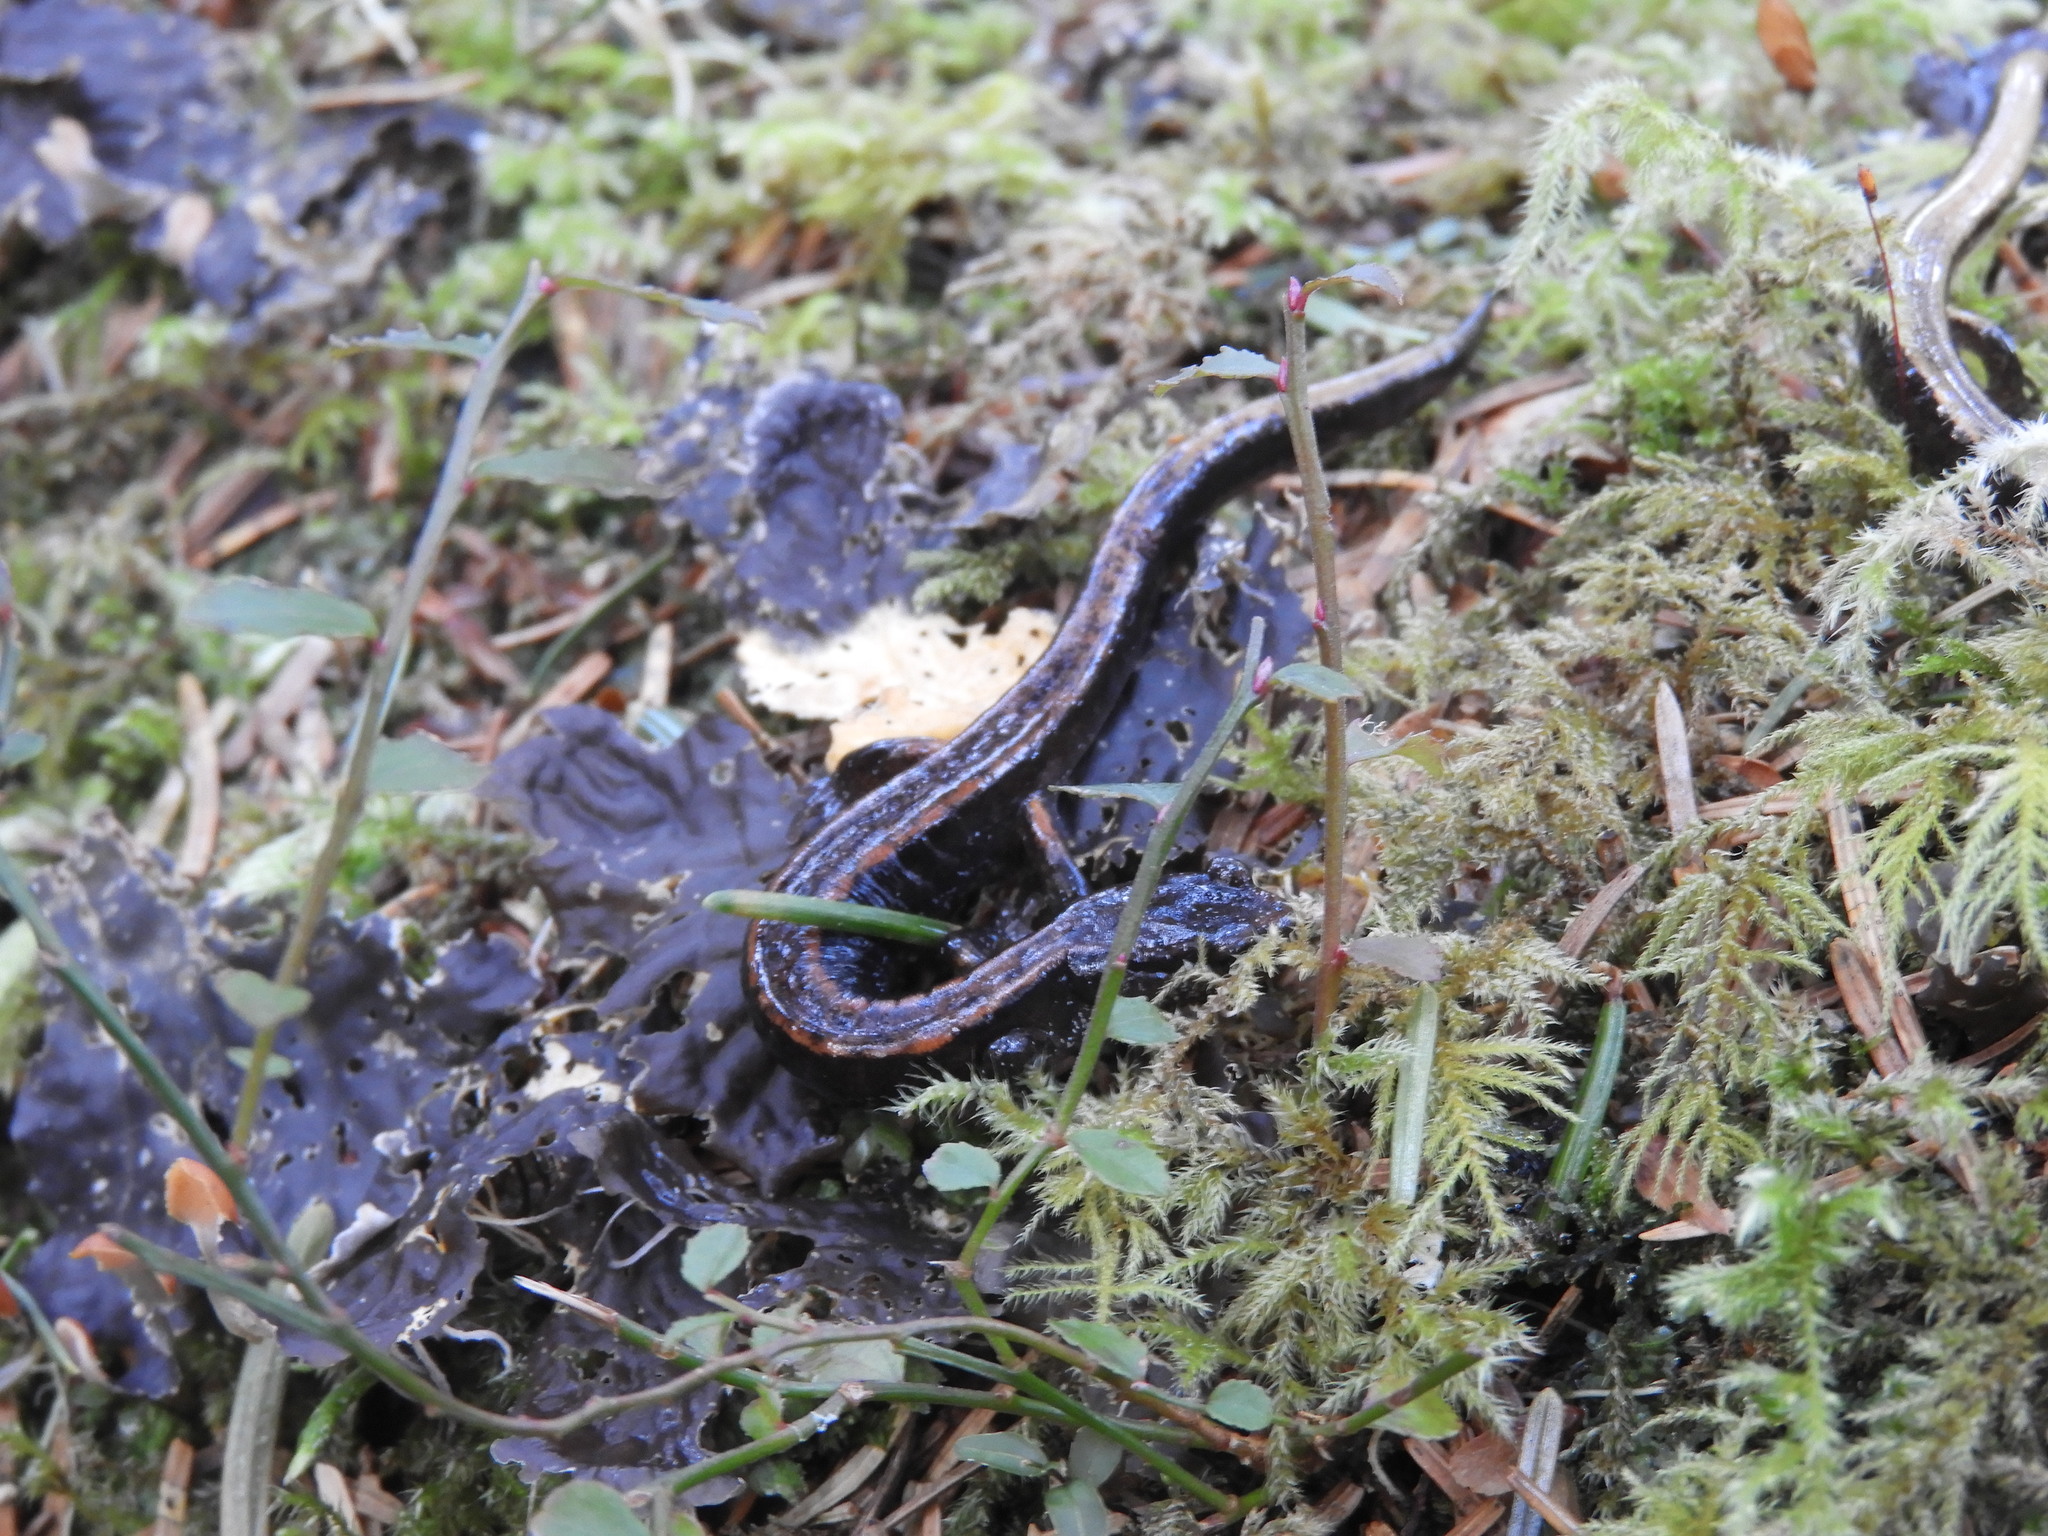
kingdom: Animalia
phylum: Chordata
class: Amphibia
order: Caudata
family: Plethodontidae
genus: Plethodon
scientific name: Plethodon vehiculum
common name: Western red-backed salamander
